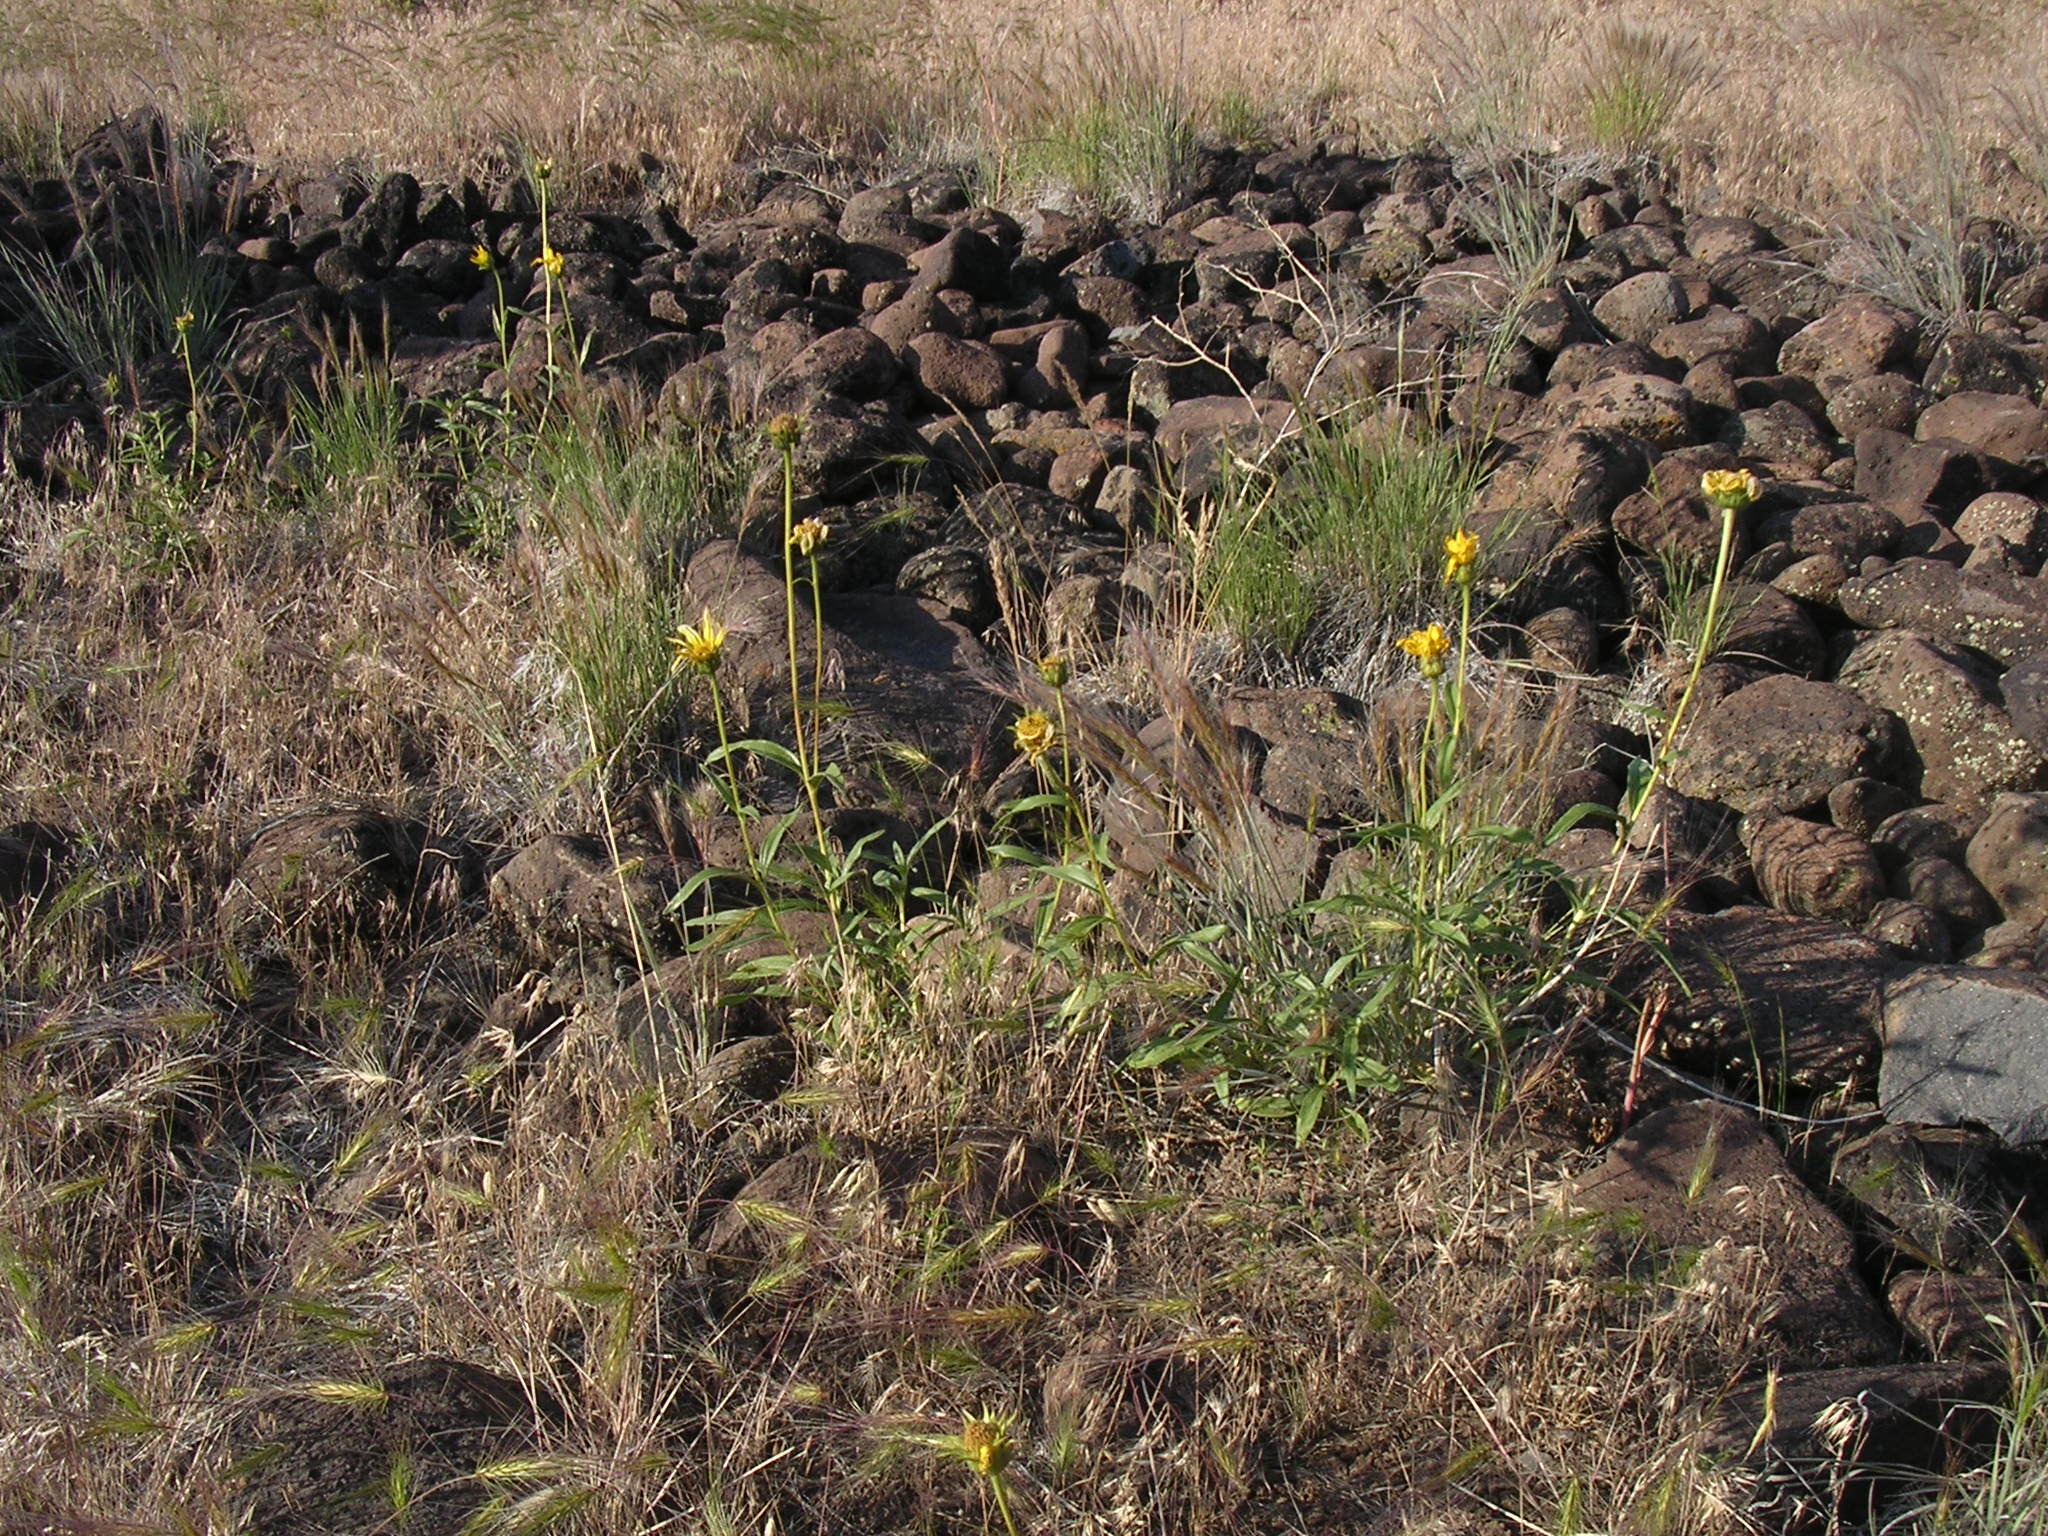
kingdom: Plantae
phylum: Tracheophyta
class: Magnoliopsida
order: Asterales
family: Asteraceae
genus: Helianthus
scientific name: Helianthus cusickii
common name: Cusick's sunflower
